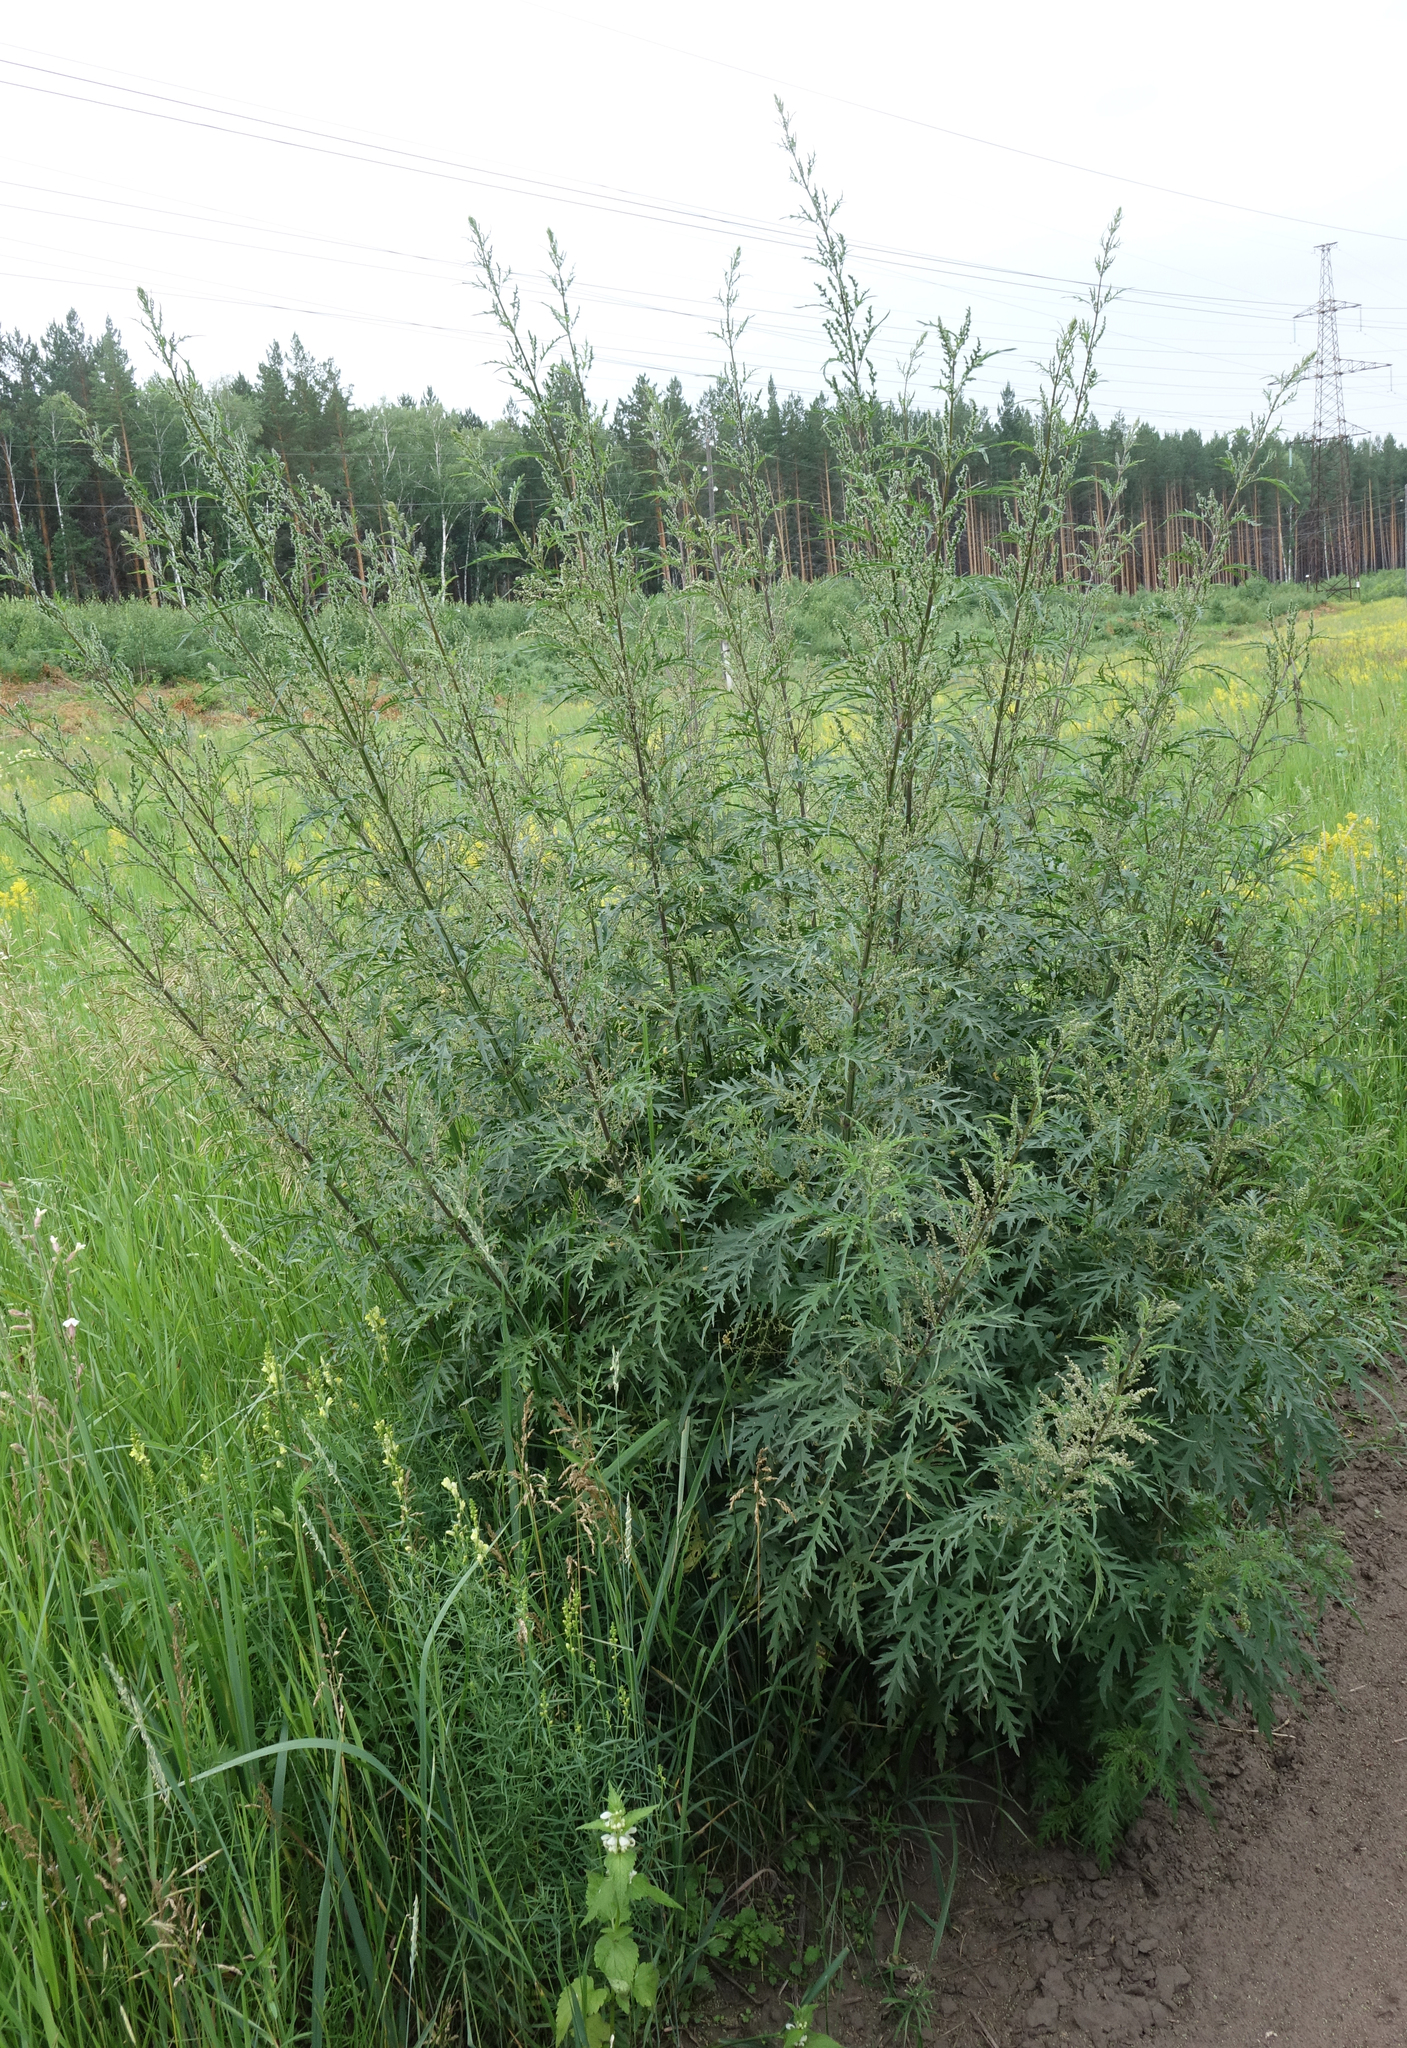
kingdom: Plantae
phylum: Tracheophyta
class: Magnoliopsida
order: Rosales
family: Urticaceae
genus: Urtica
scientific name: Urtica cannabina
